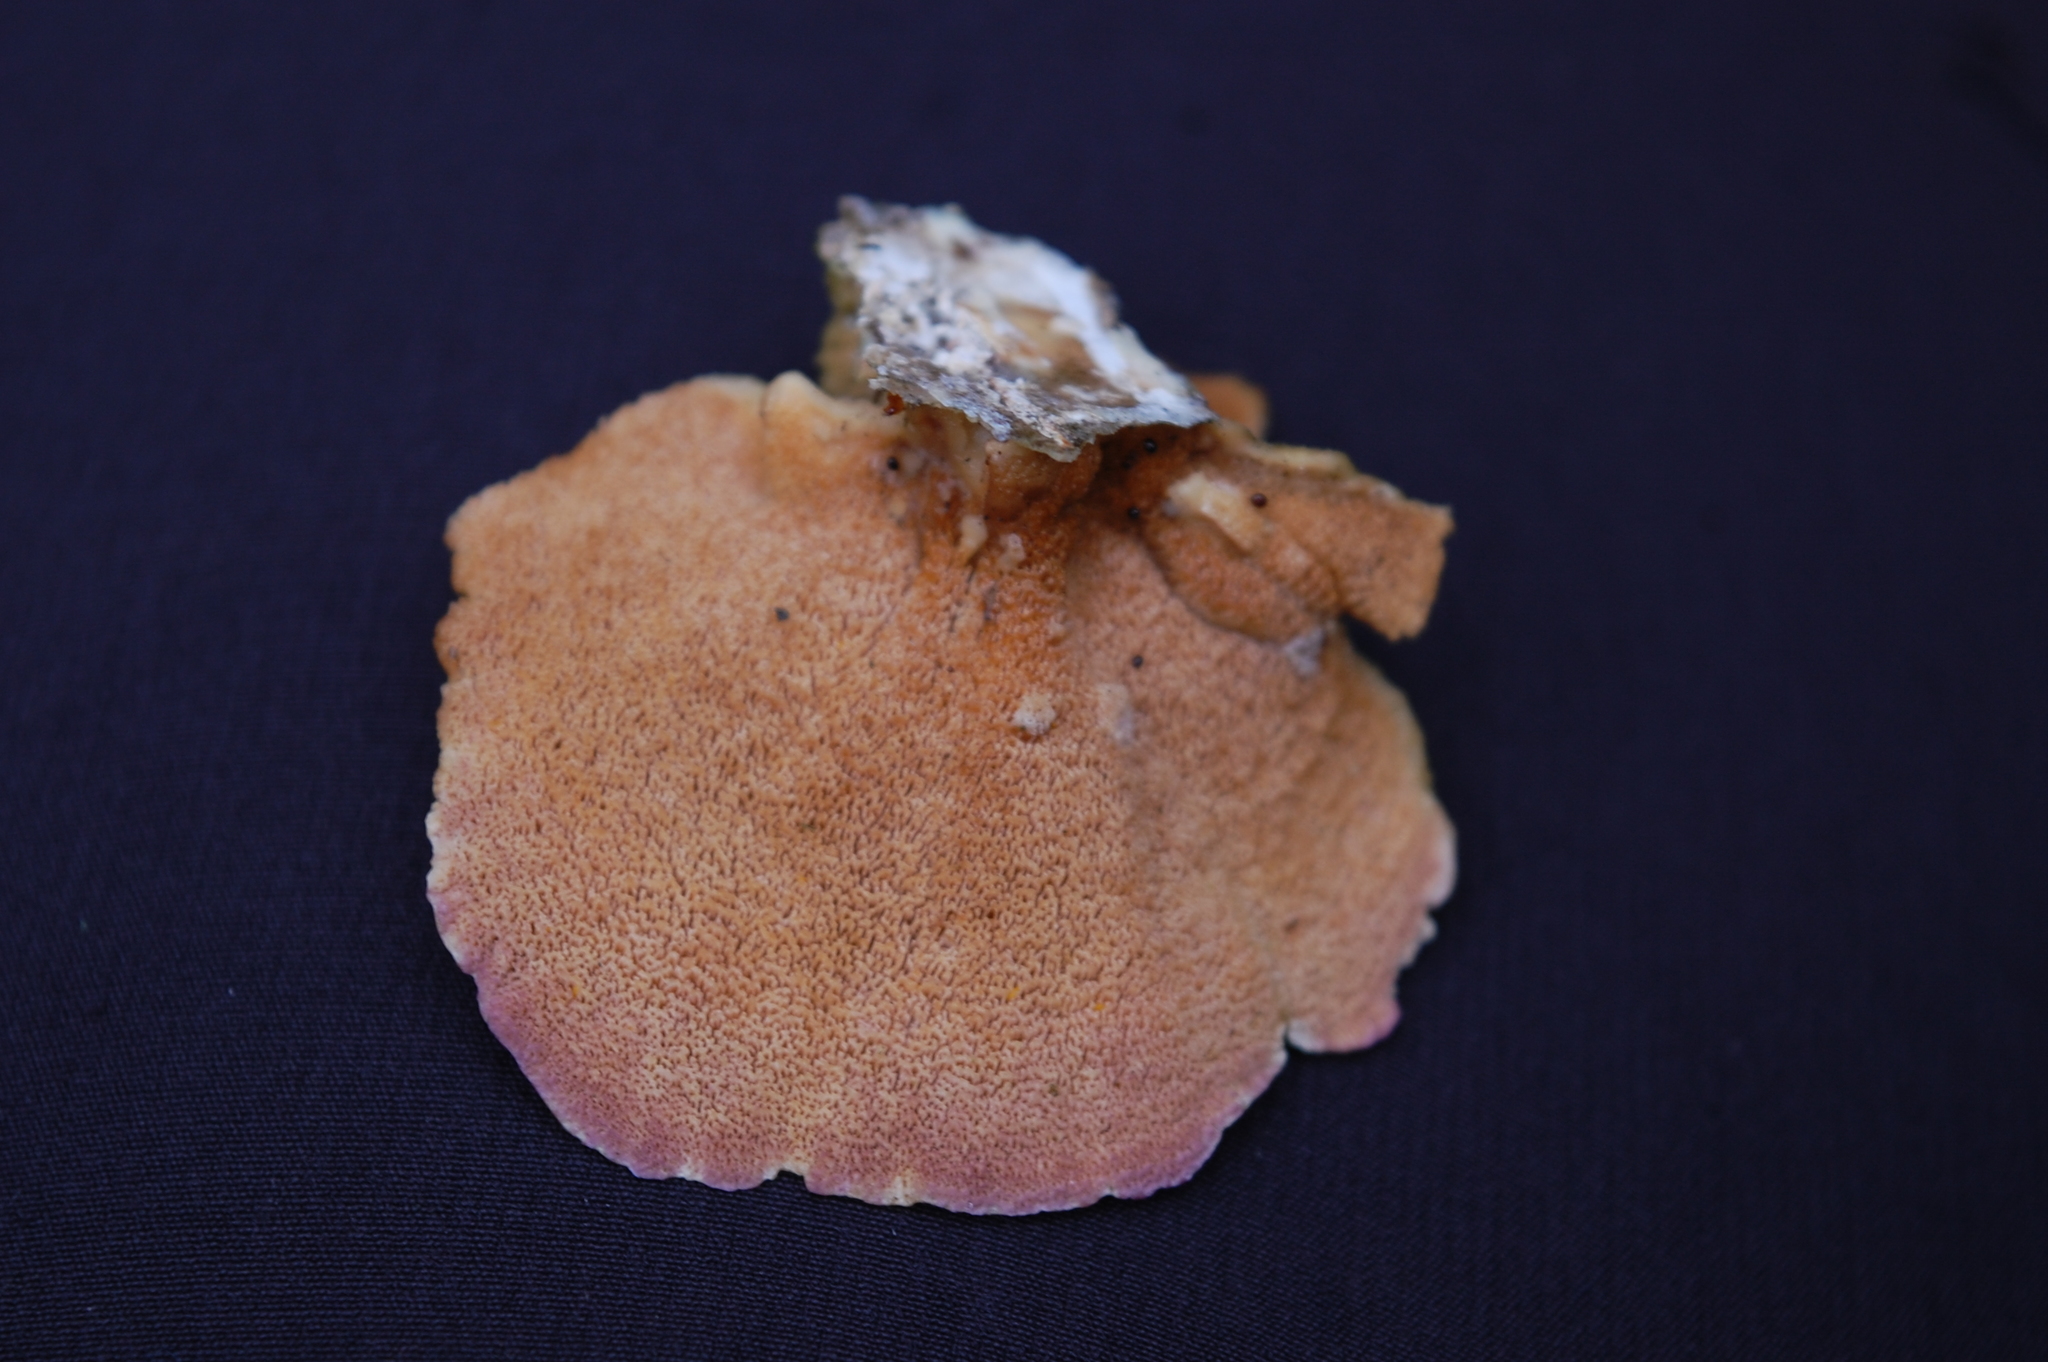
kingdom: Fungi
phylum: Basidiomycota
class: Agaricomycetes
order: Hymenochaetales
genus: Trichaptum
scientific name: Trichaptum biforme
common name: Violet-toothed polypore
